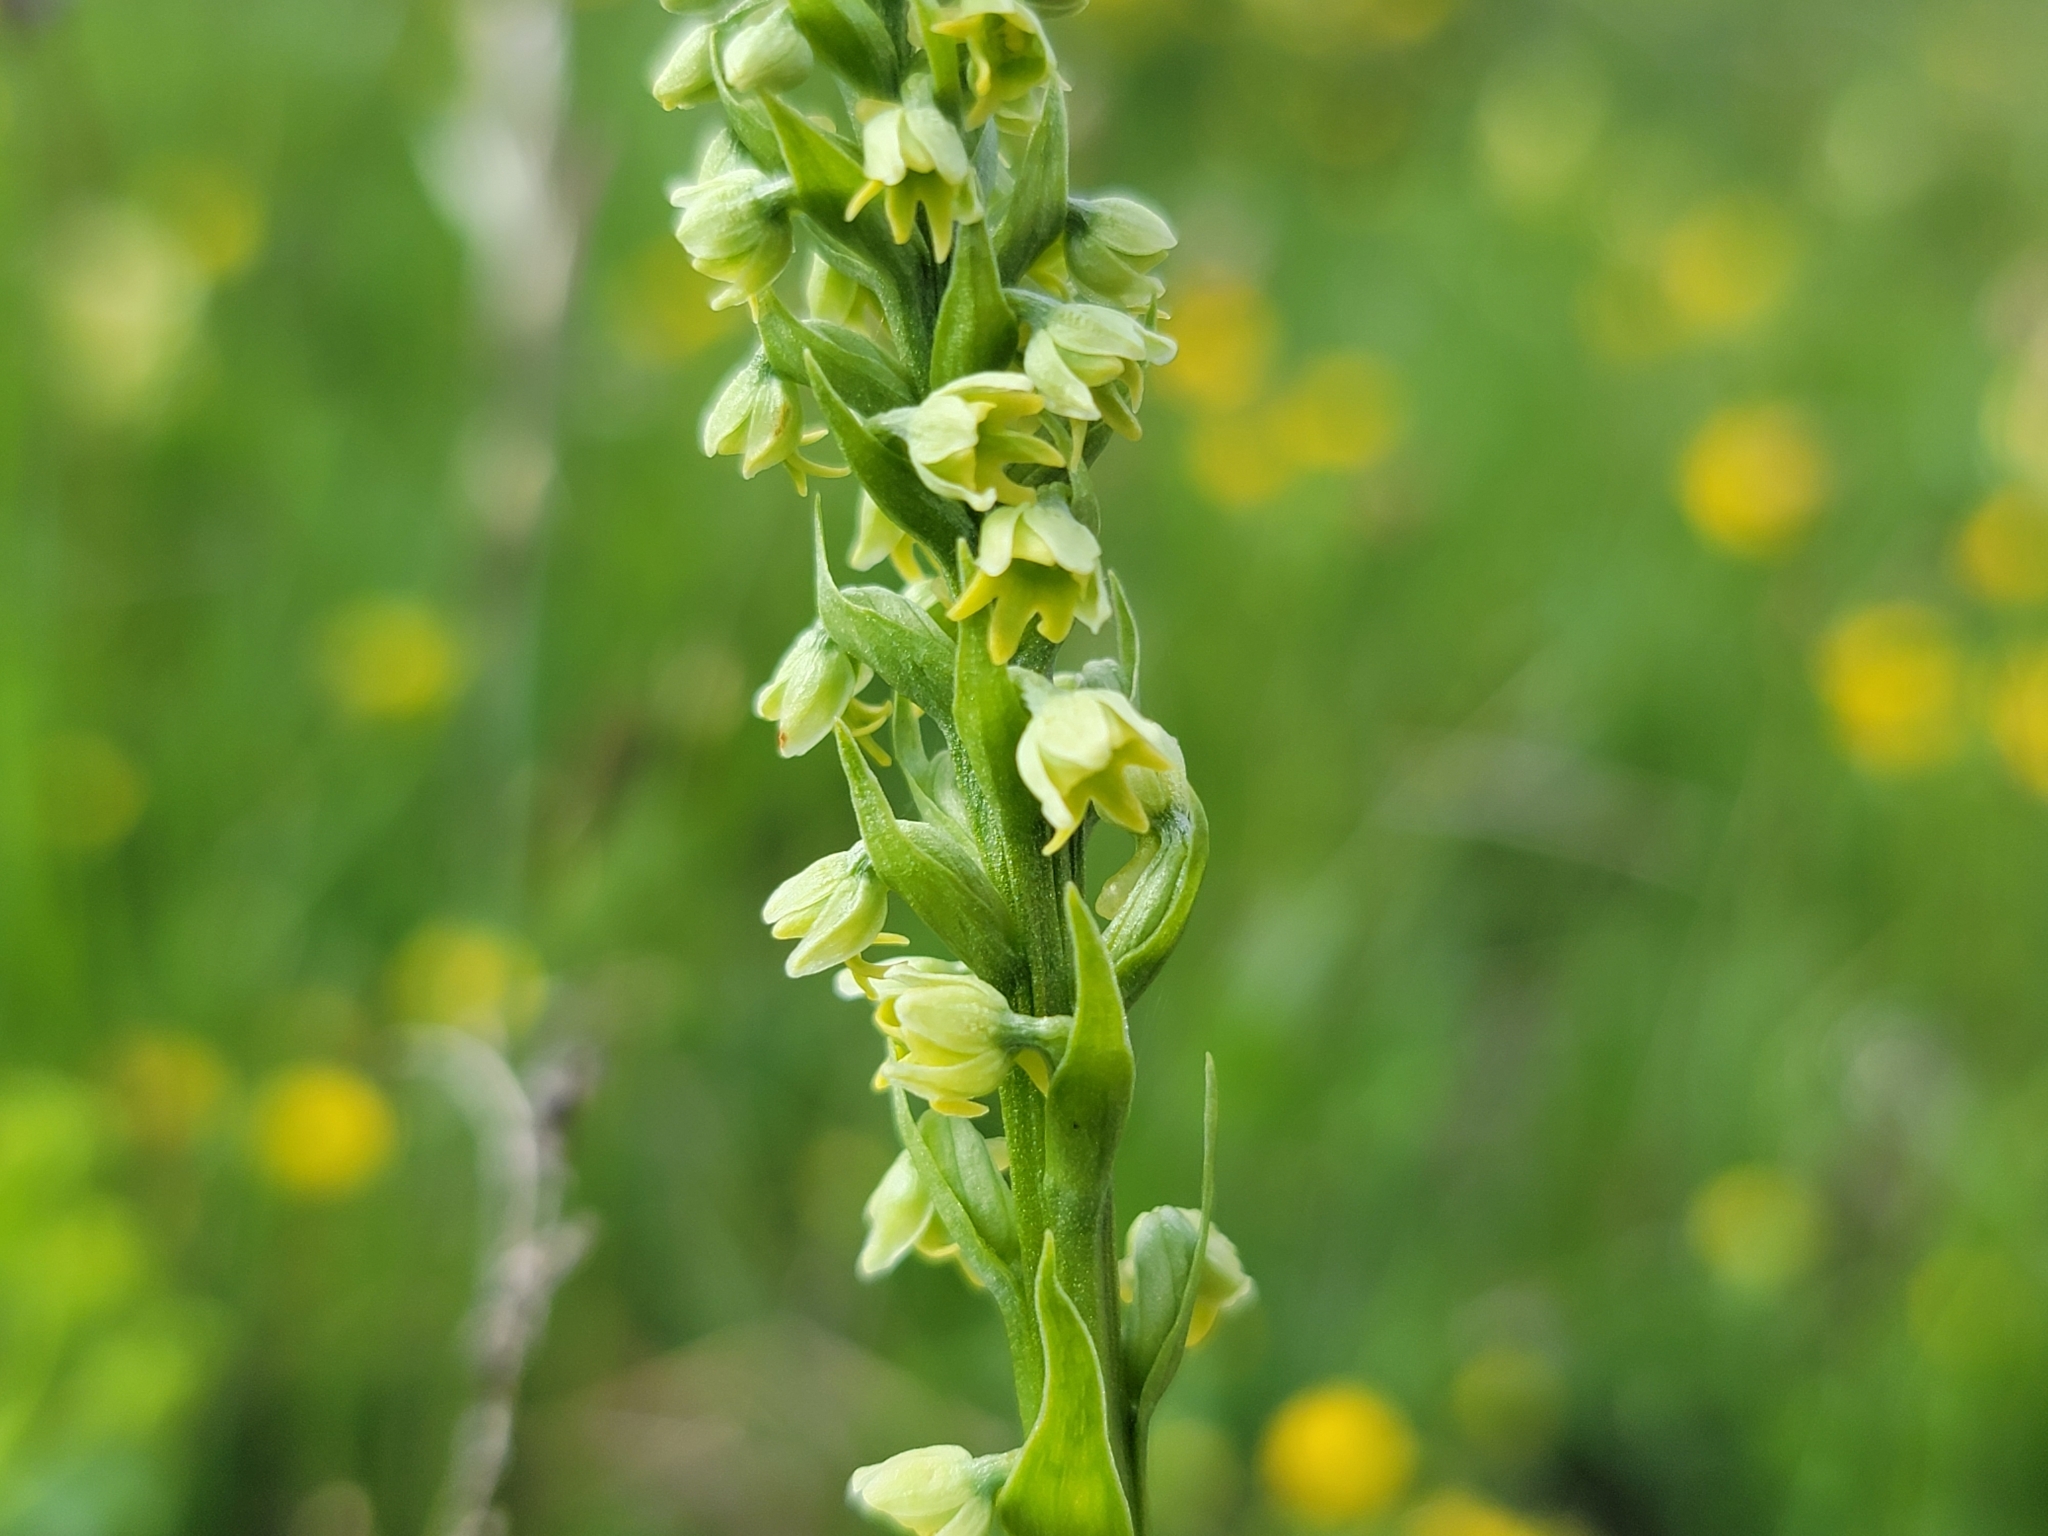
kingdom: Plantae
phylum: Tracheophyta
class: Liliopsida
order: Asparagales
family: Orchidaceae
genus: Pseudorchis
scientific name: Pseudorchis albida
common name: Small-white orchid
